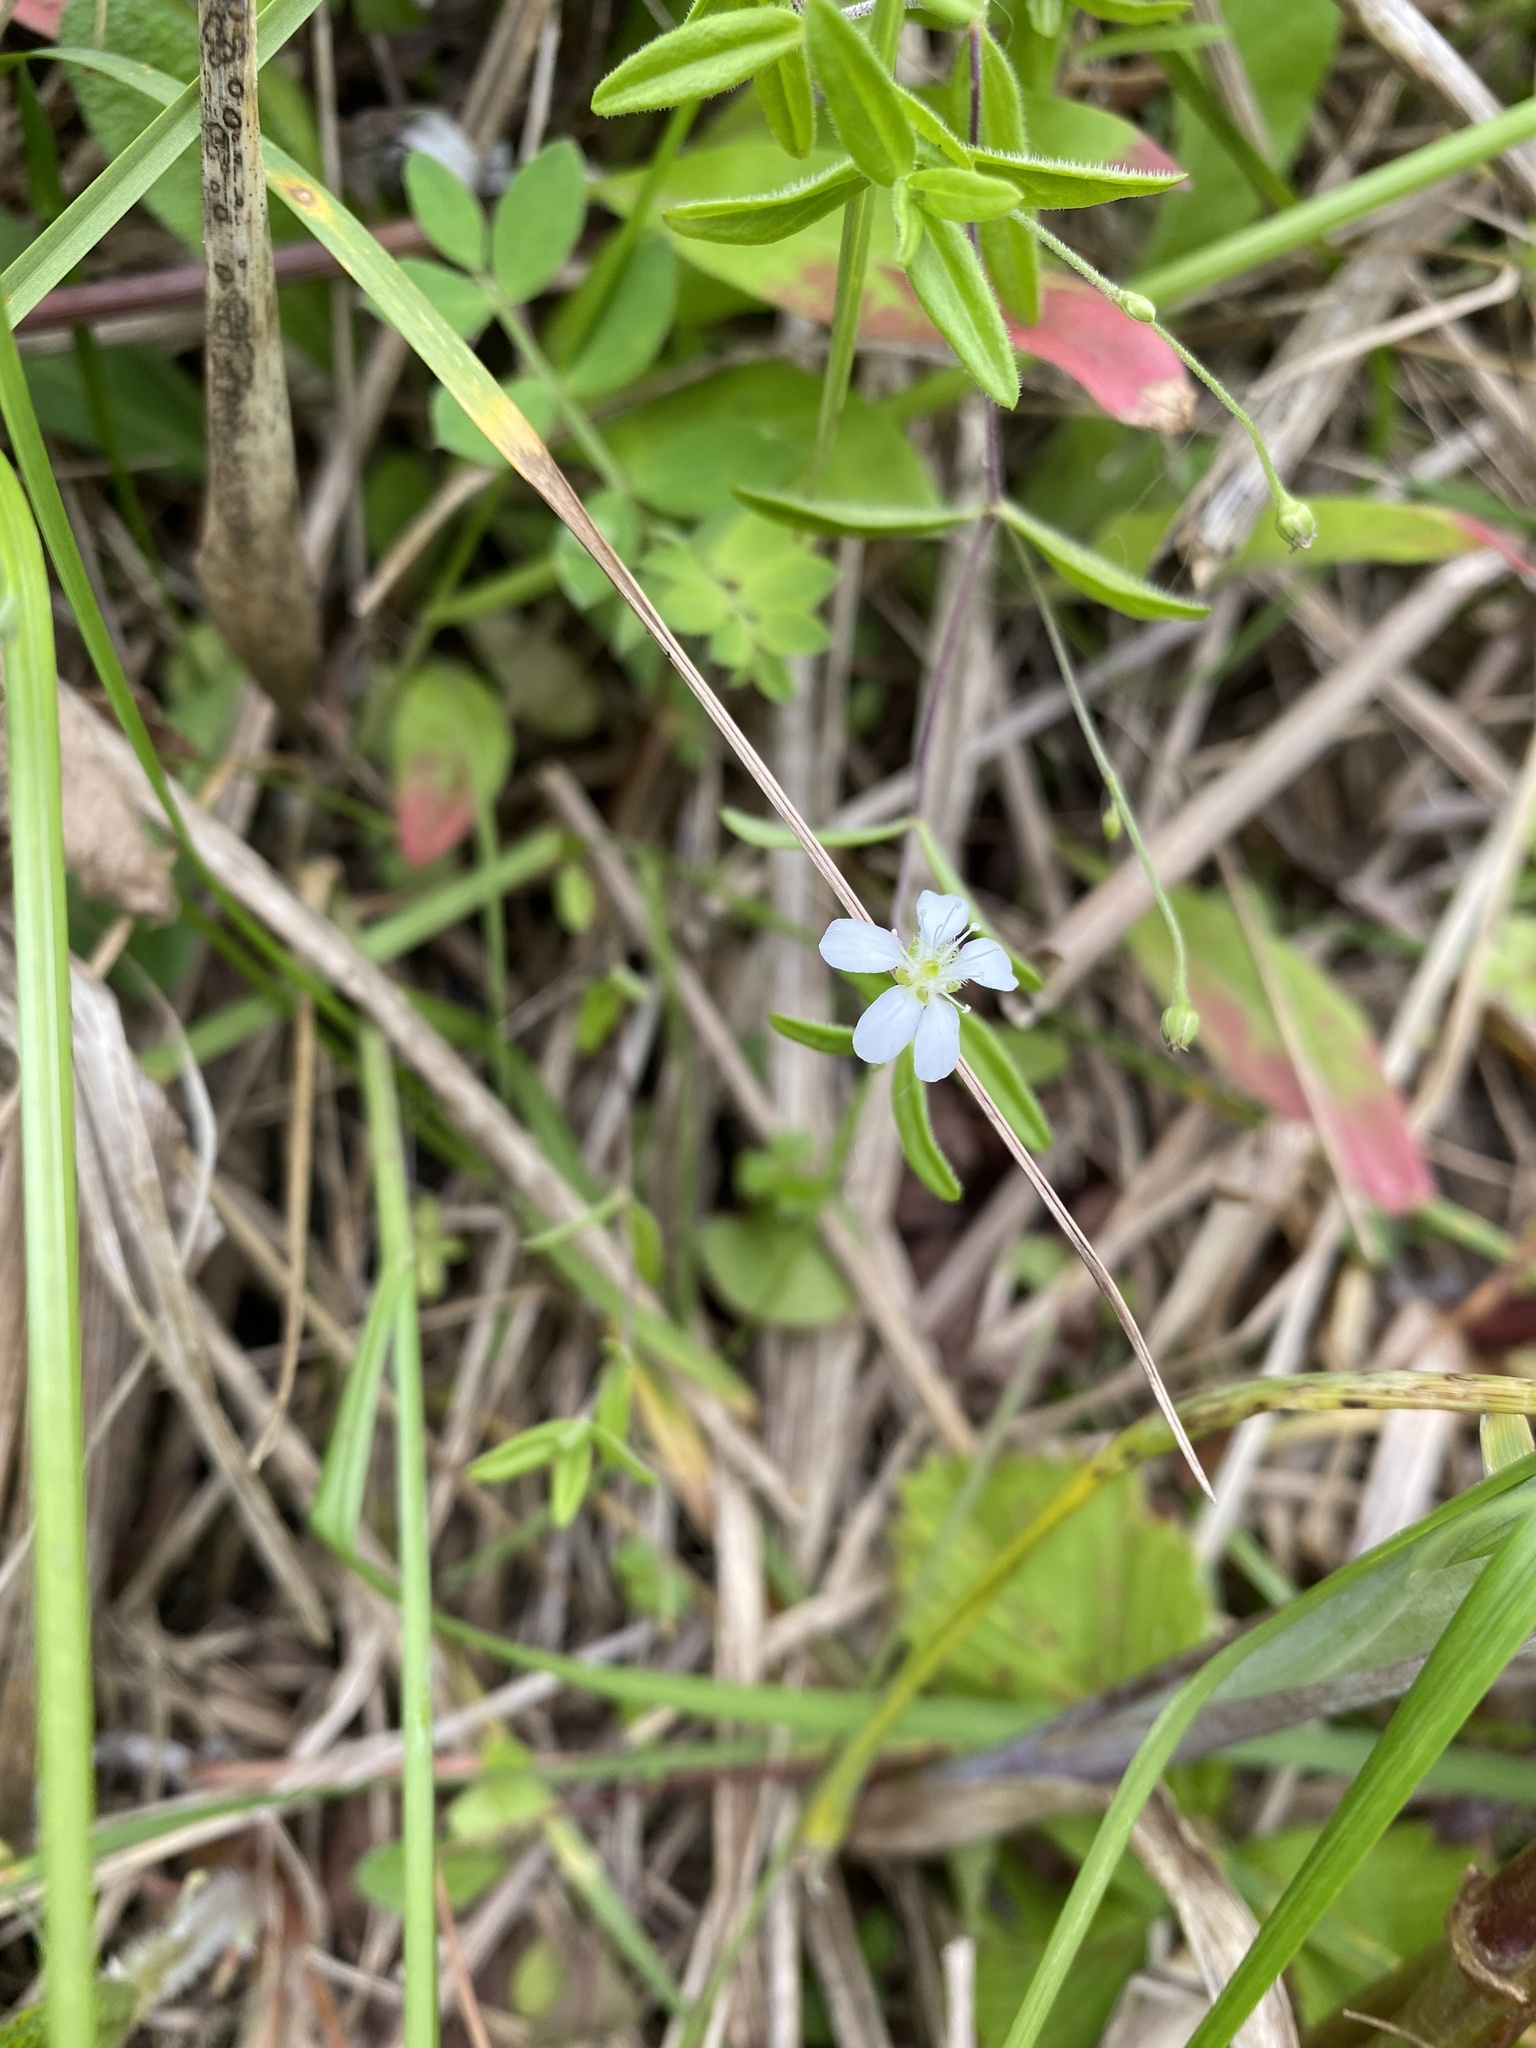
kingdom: Plantae
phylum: Tracheophyta
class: Magnoliopsida
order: Caryophyllales
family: Caryophyllaceae
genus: Moehringia
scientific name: Moehringia lateriflora
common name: Blunt-leaved sandwort
